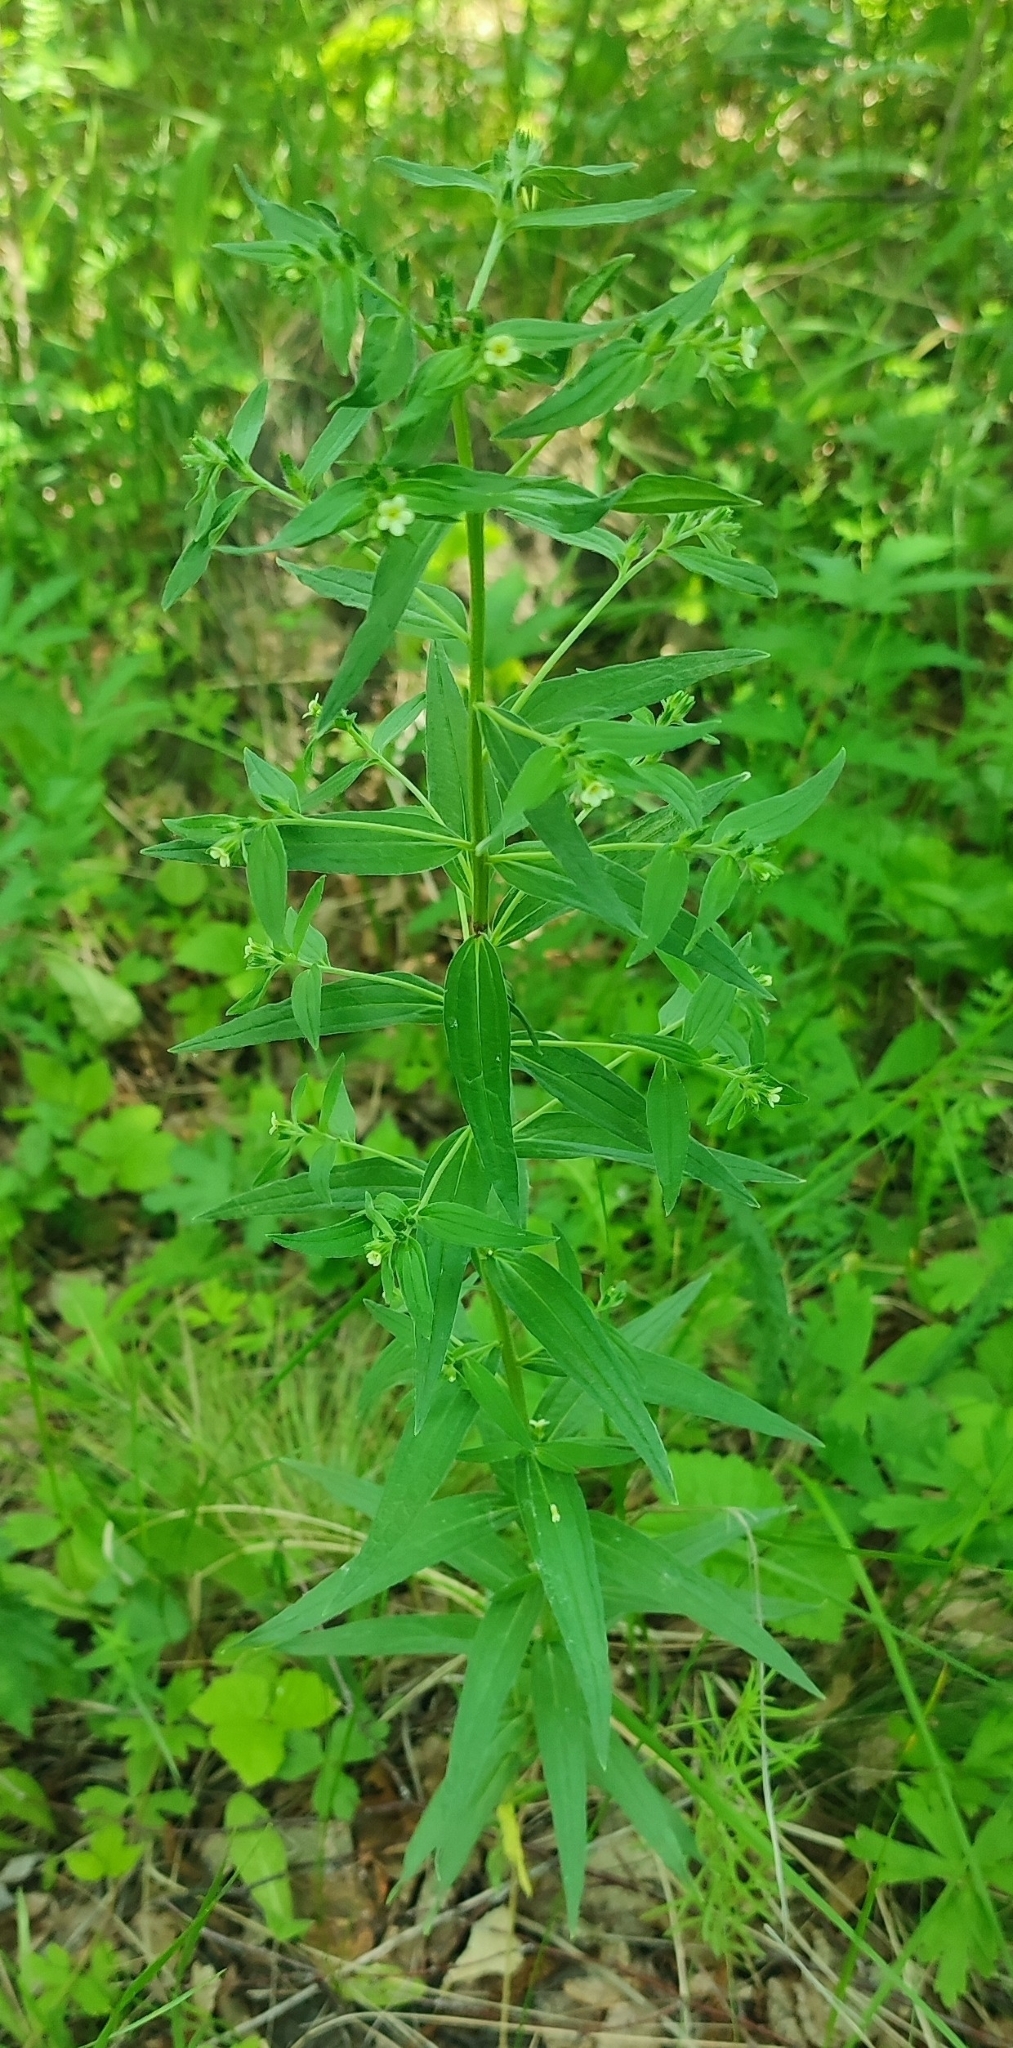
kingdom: Plantae
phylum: Tracheophyta
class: Magnoliopsida
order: Boraginales
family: Boraginaceae
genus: Lithospermum
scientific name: Lithospermum officinale
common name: Common gromwell
